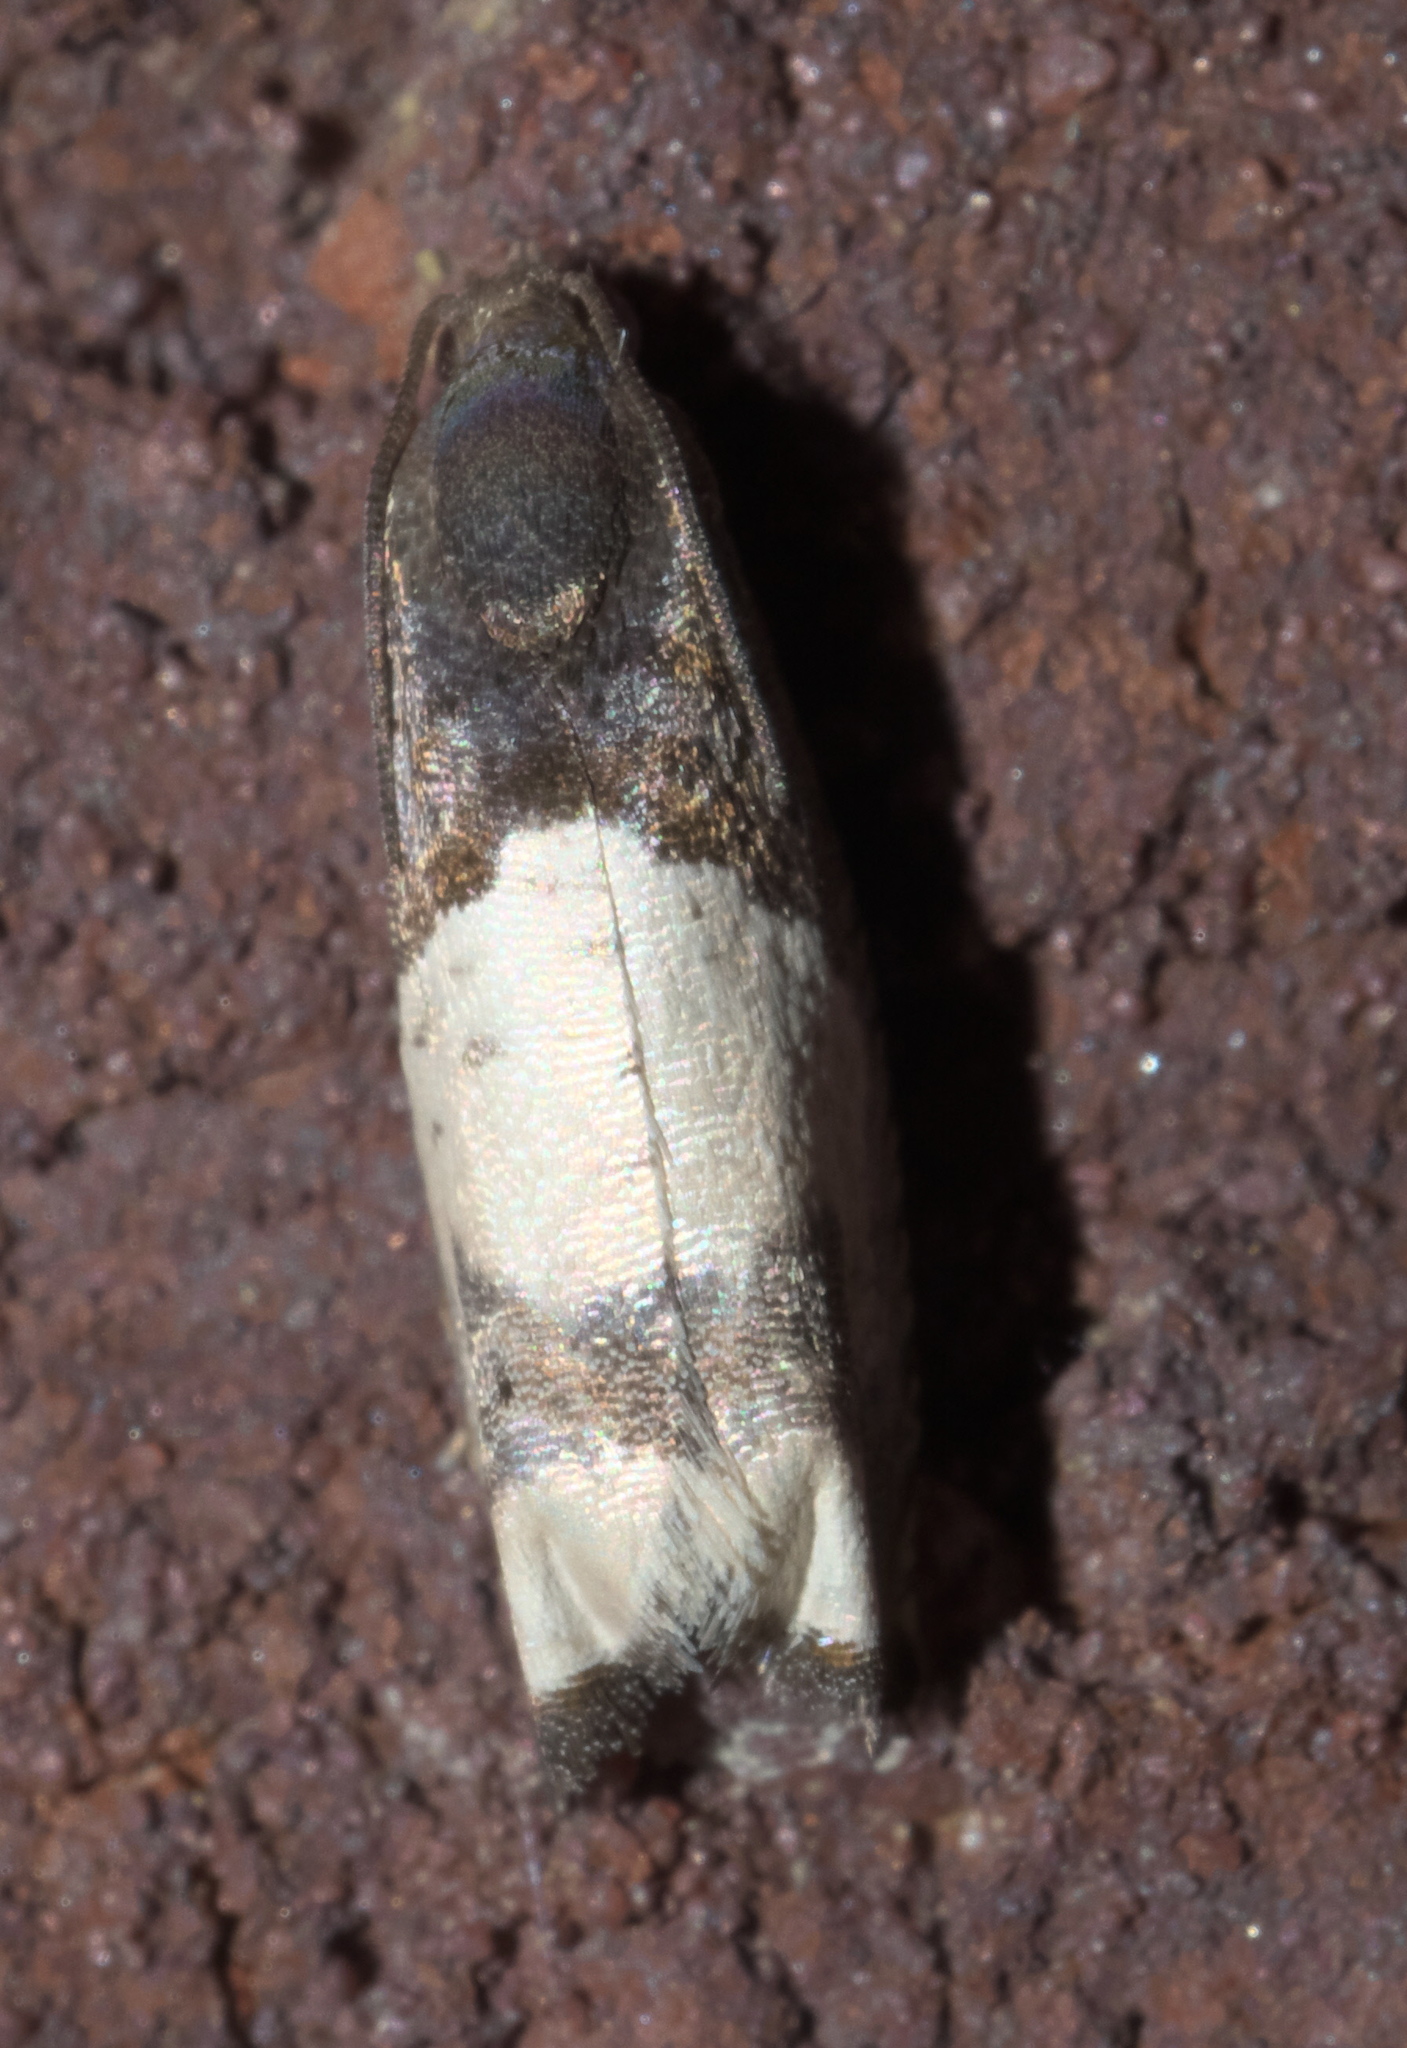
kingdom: Animalia
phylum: Arthropoda
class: Insecta
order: Lepidoptera
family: Tortricidae
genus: Epiblema
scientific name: Epiblema scudderiana
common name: Goldenrod gall moth
